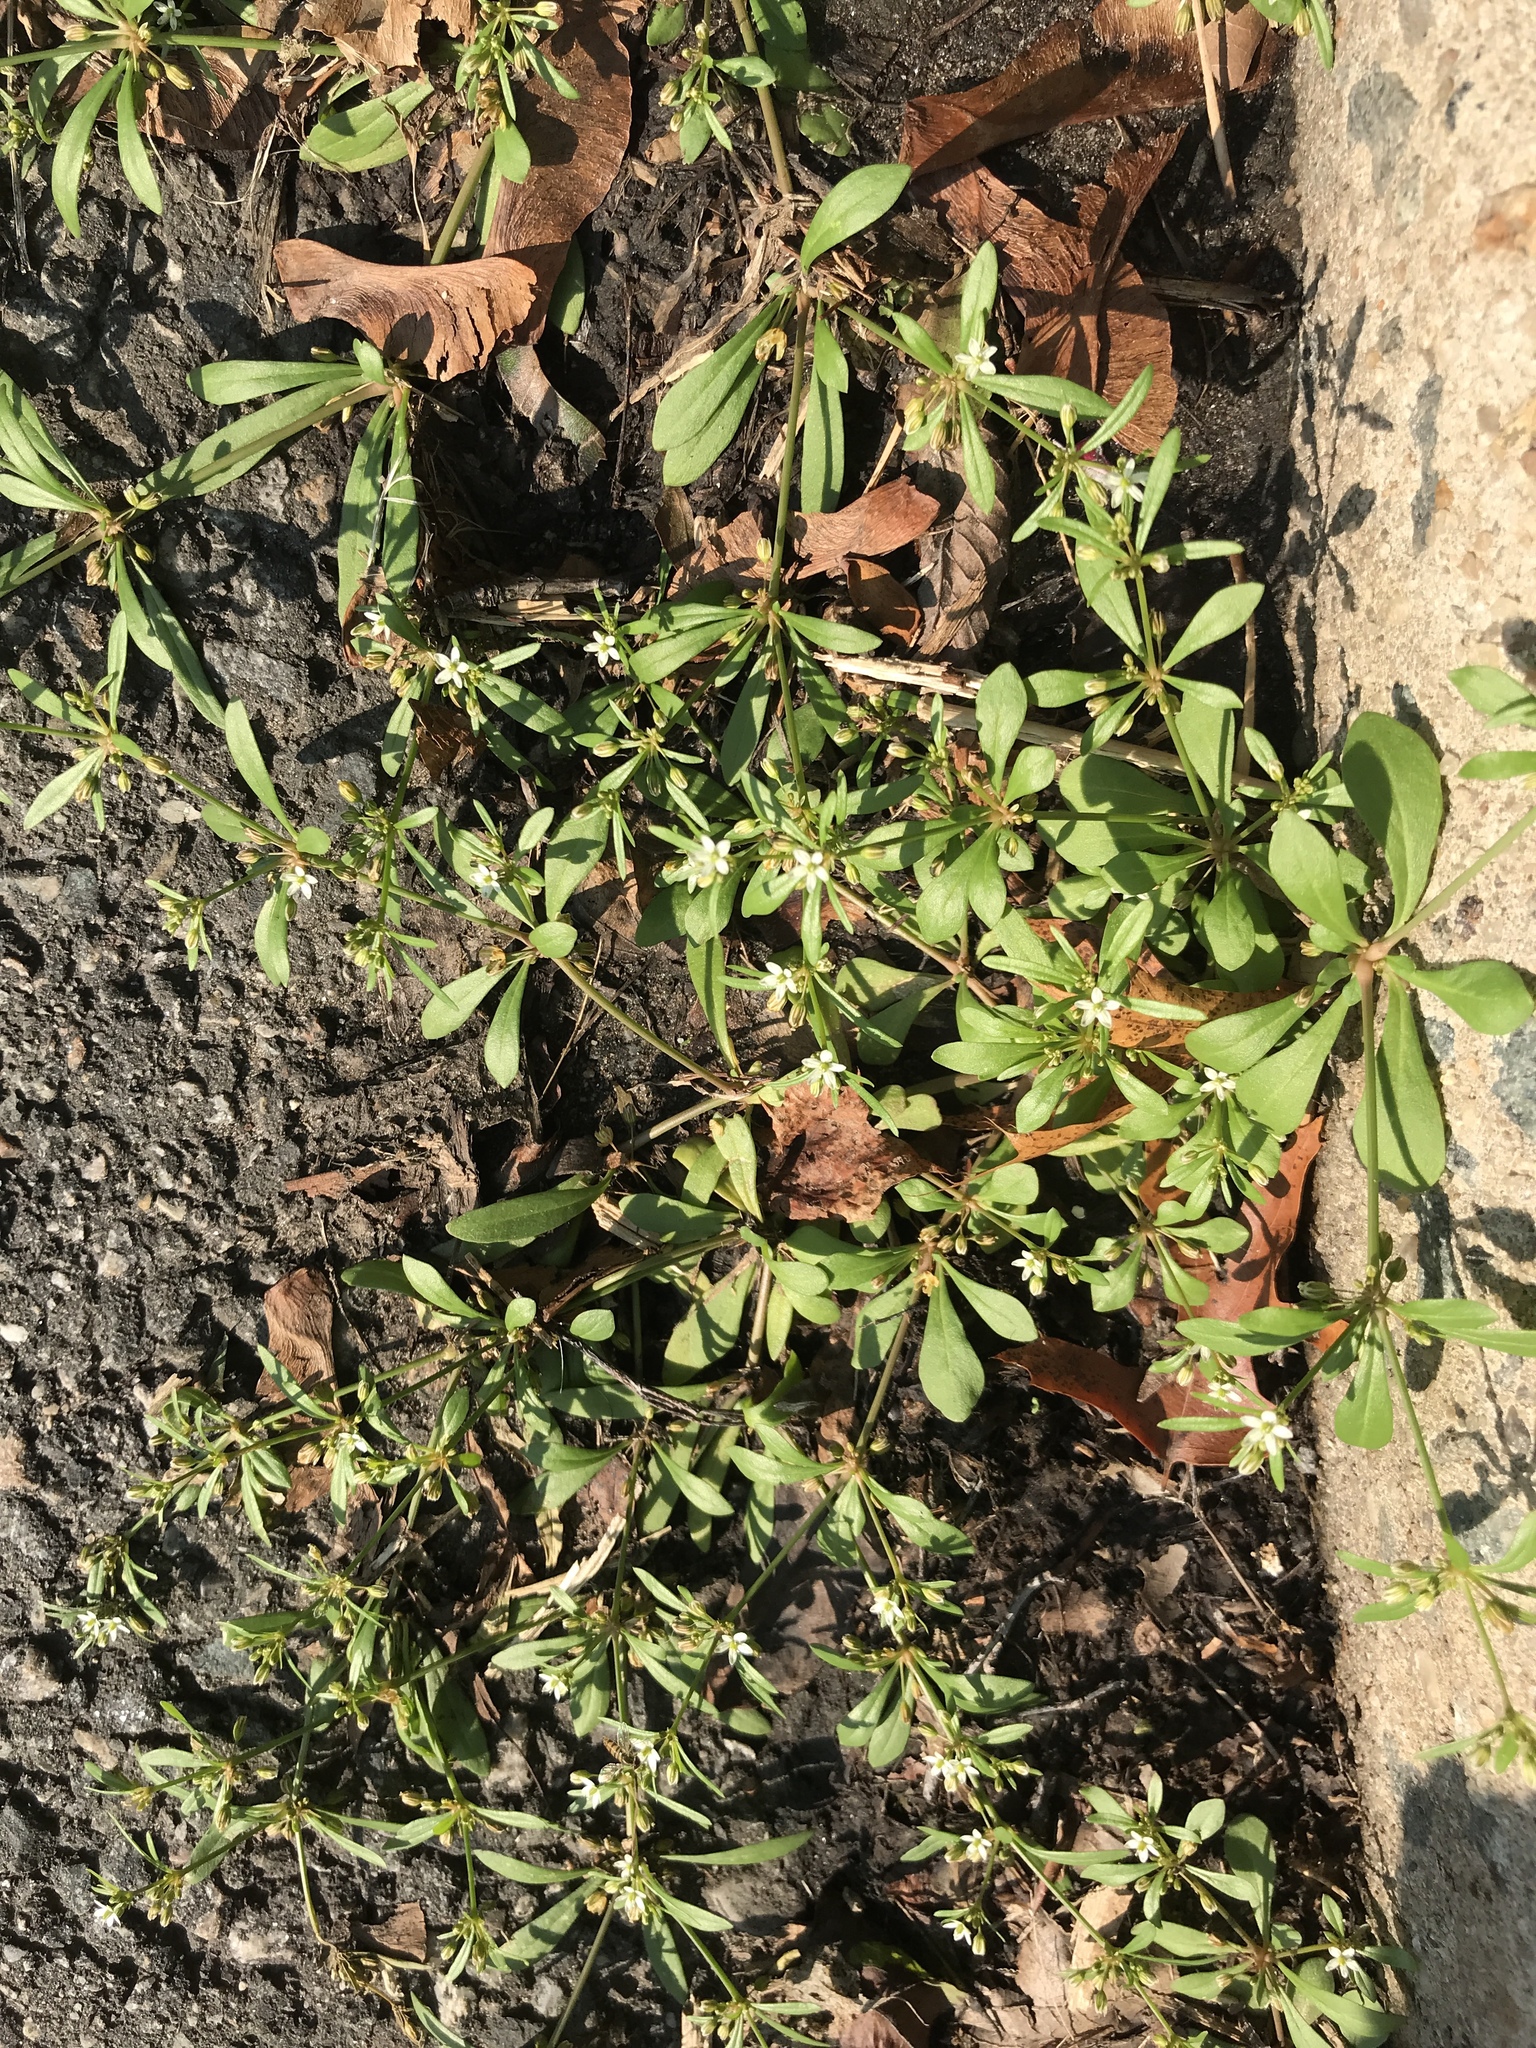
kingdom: Plantae
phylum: Tracheophyta
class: Magnoliopsida
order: Caryophyllales
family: Molluginaceae
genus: Mollugo
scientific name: Mollugo verticillata
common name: Green carpetweed
